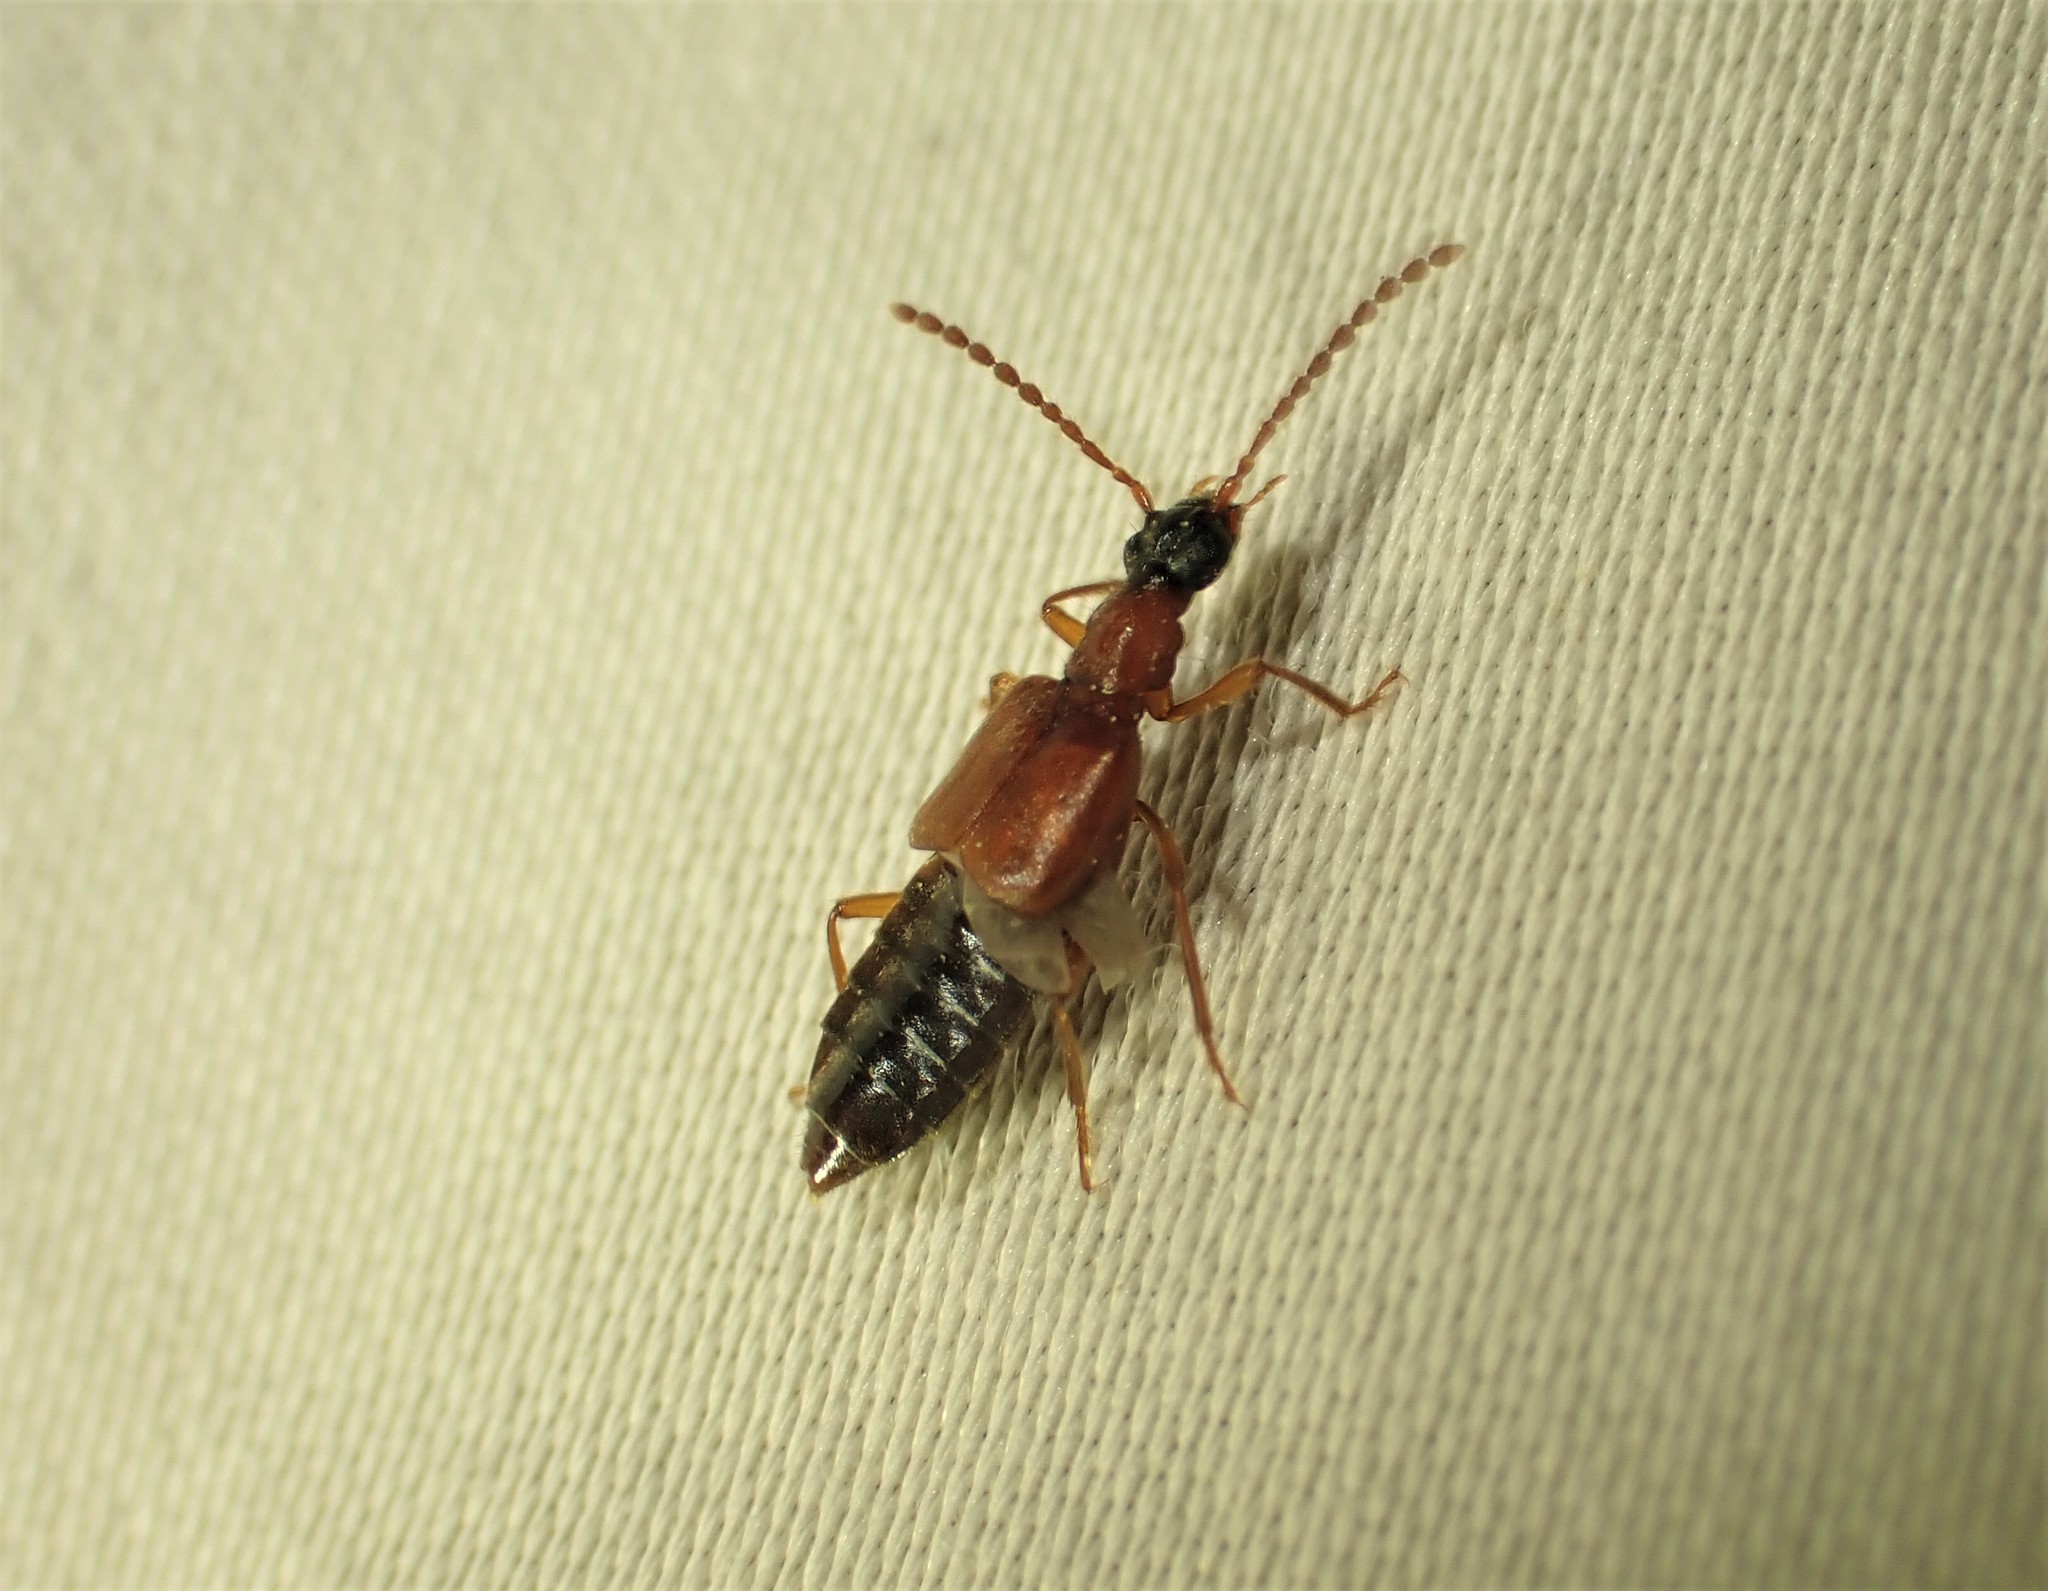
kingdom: Animalia
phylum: Arthropoda
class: Insecta
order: Coleoptera
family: Staphylinidae
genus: Deleaster
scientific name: Deleaster dichrous
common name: Rove beetle
